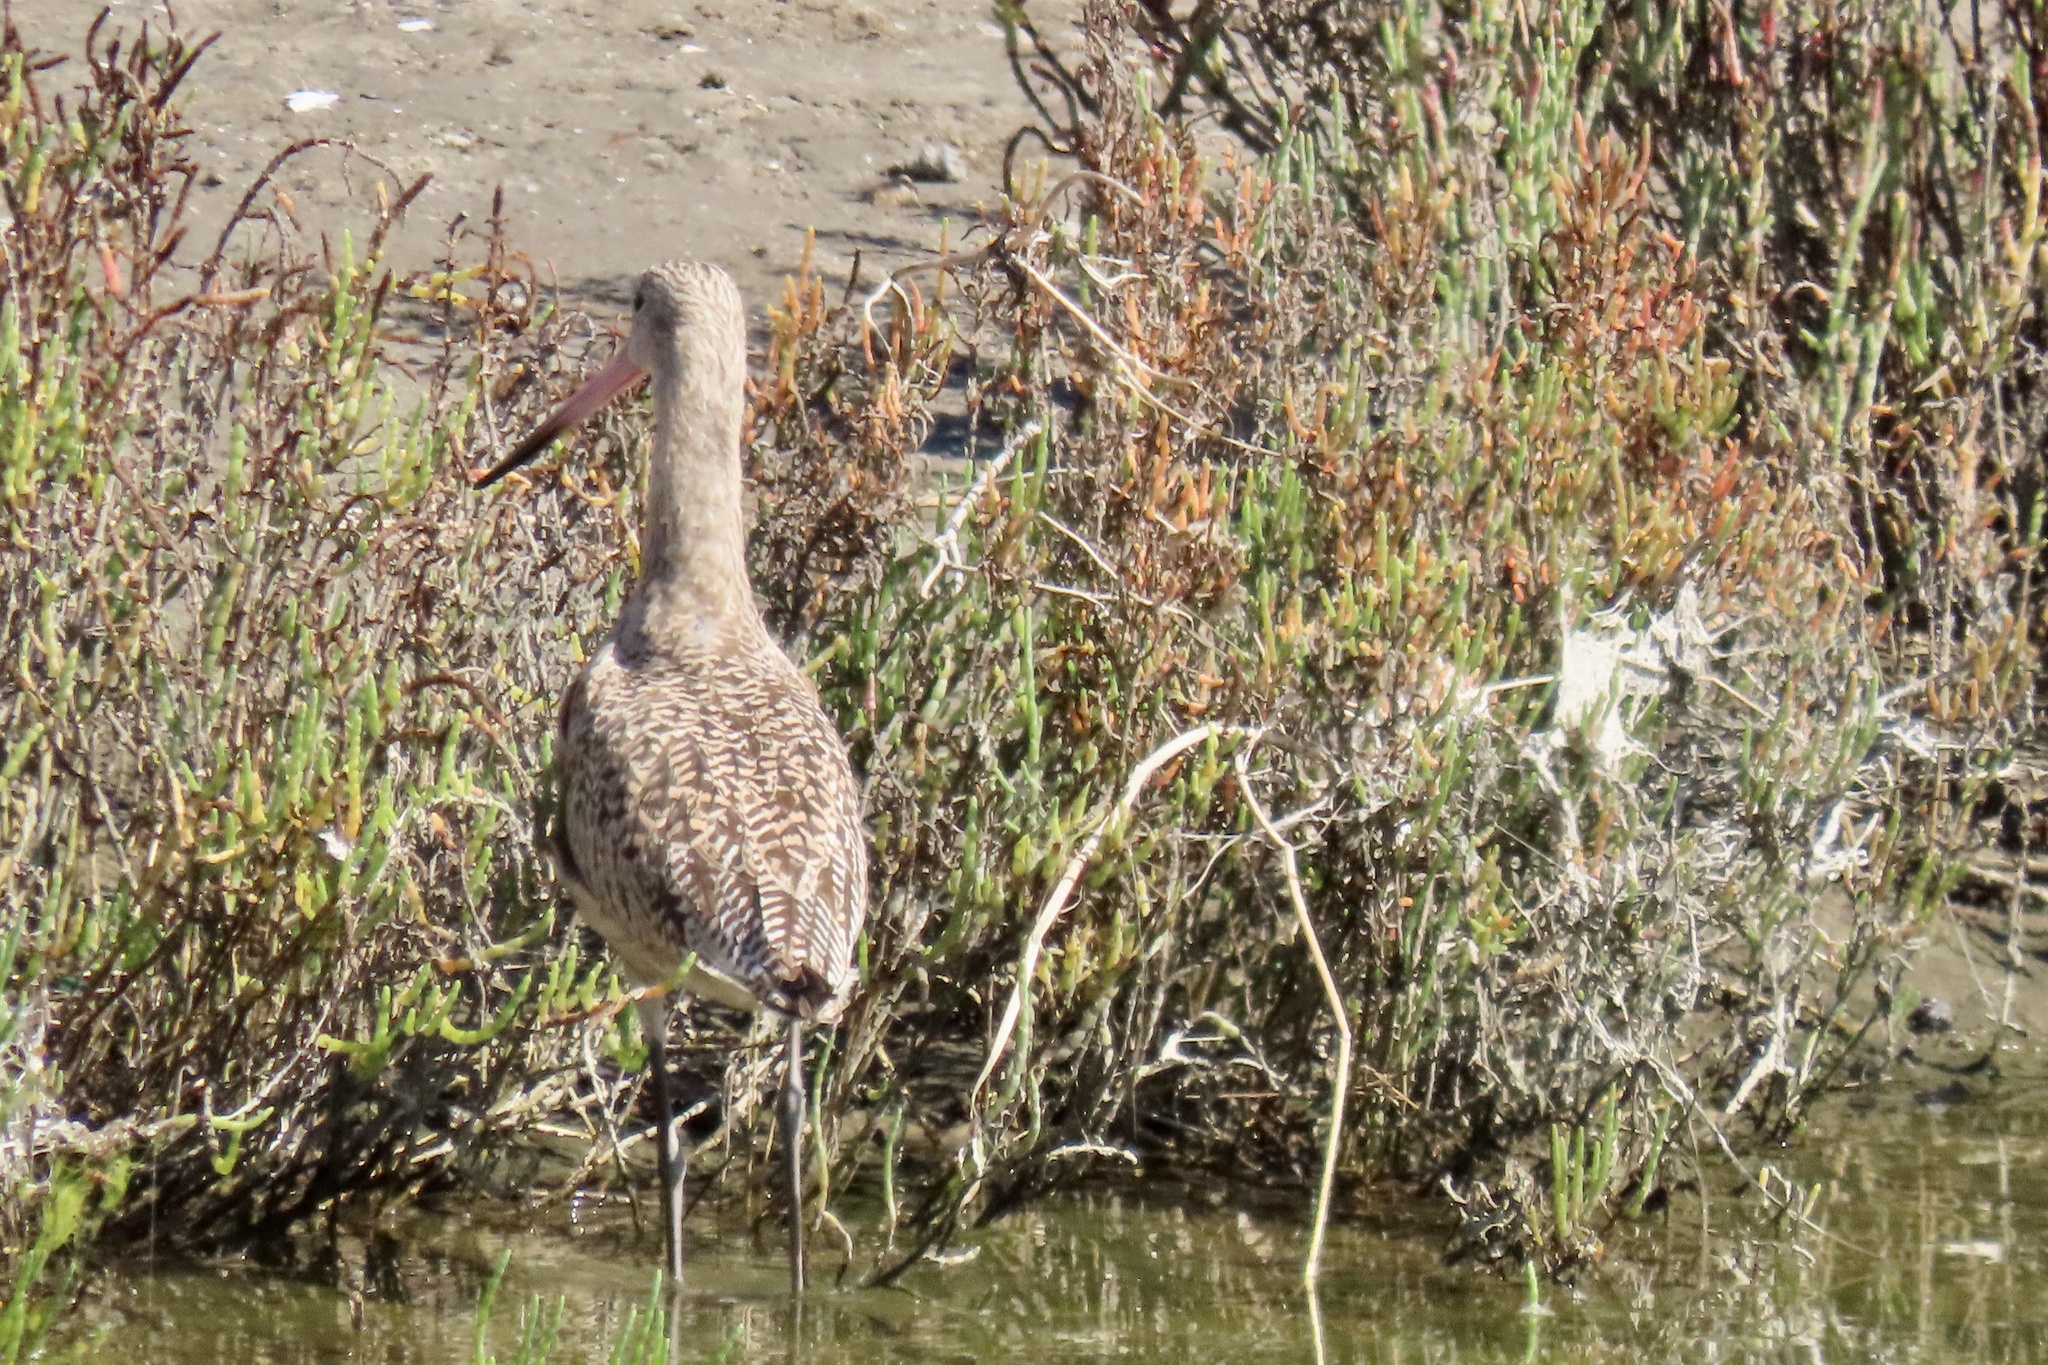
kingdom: Animalia
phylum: Chordata
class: Aves
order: Charadriiformes
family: Scolopacidae
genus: Limosa
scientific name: Limosa fedoa
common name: Marbled godwit
